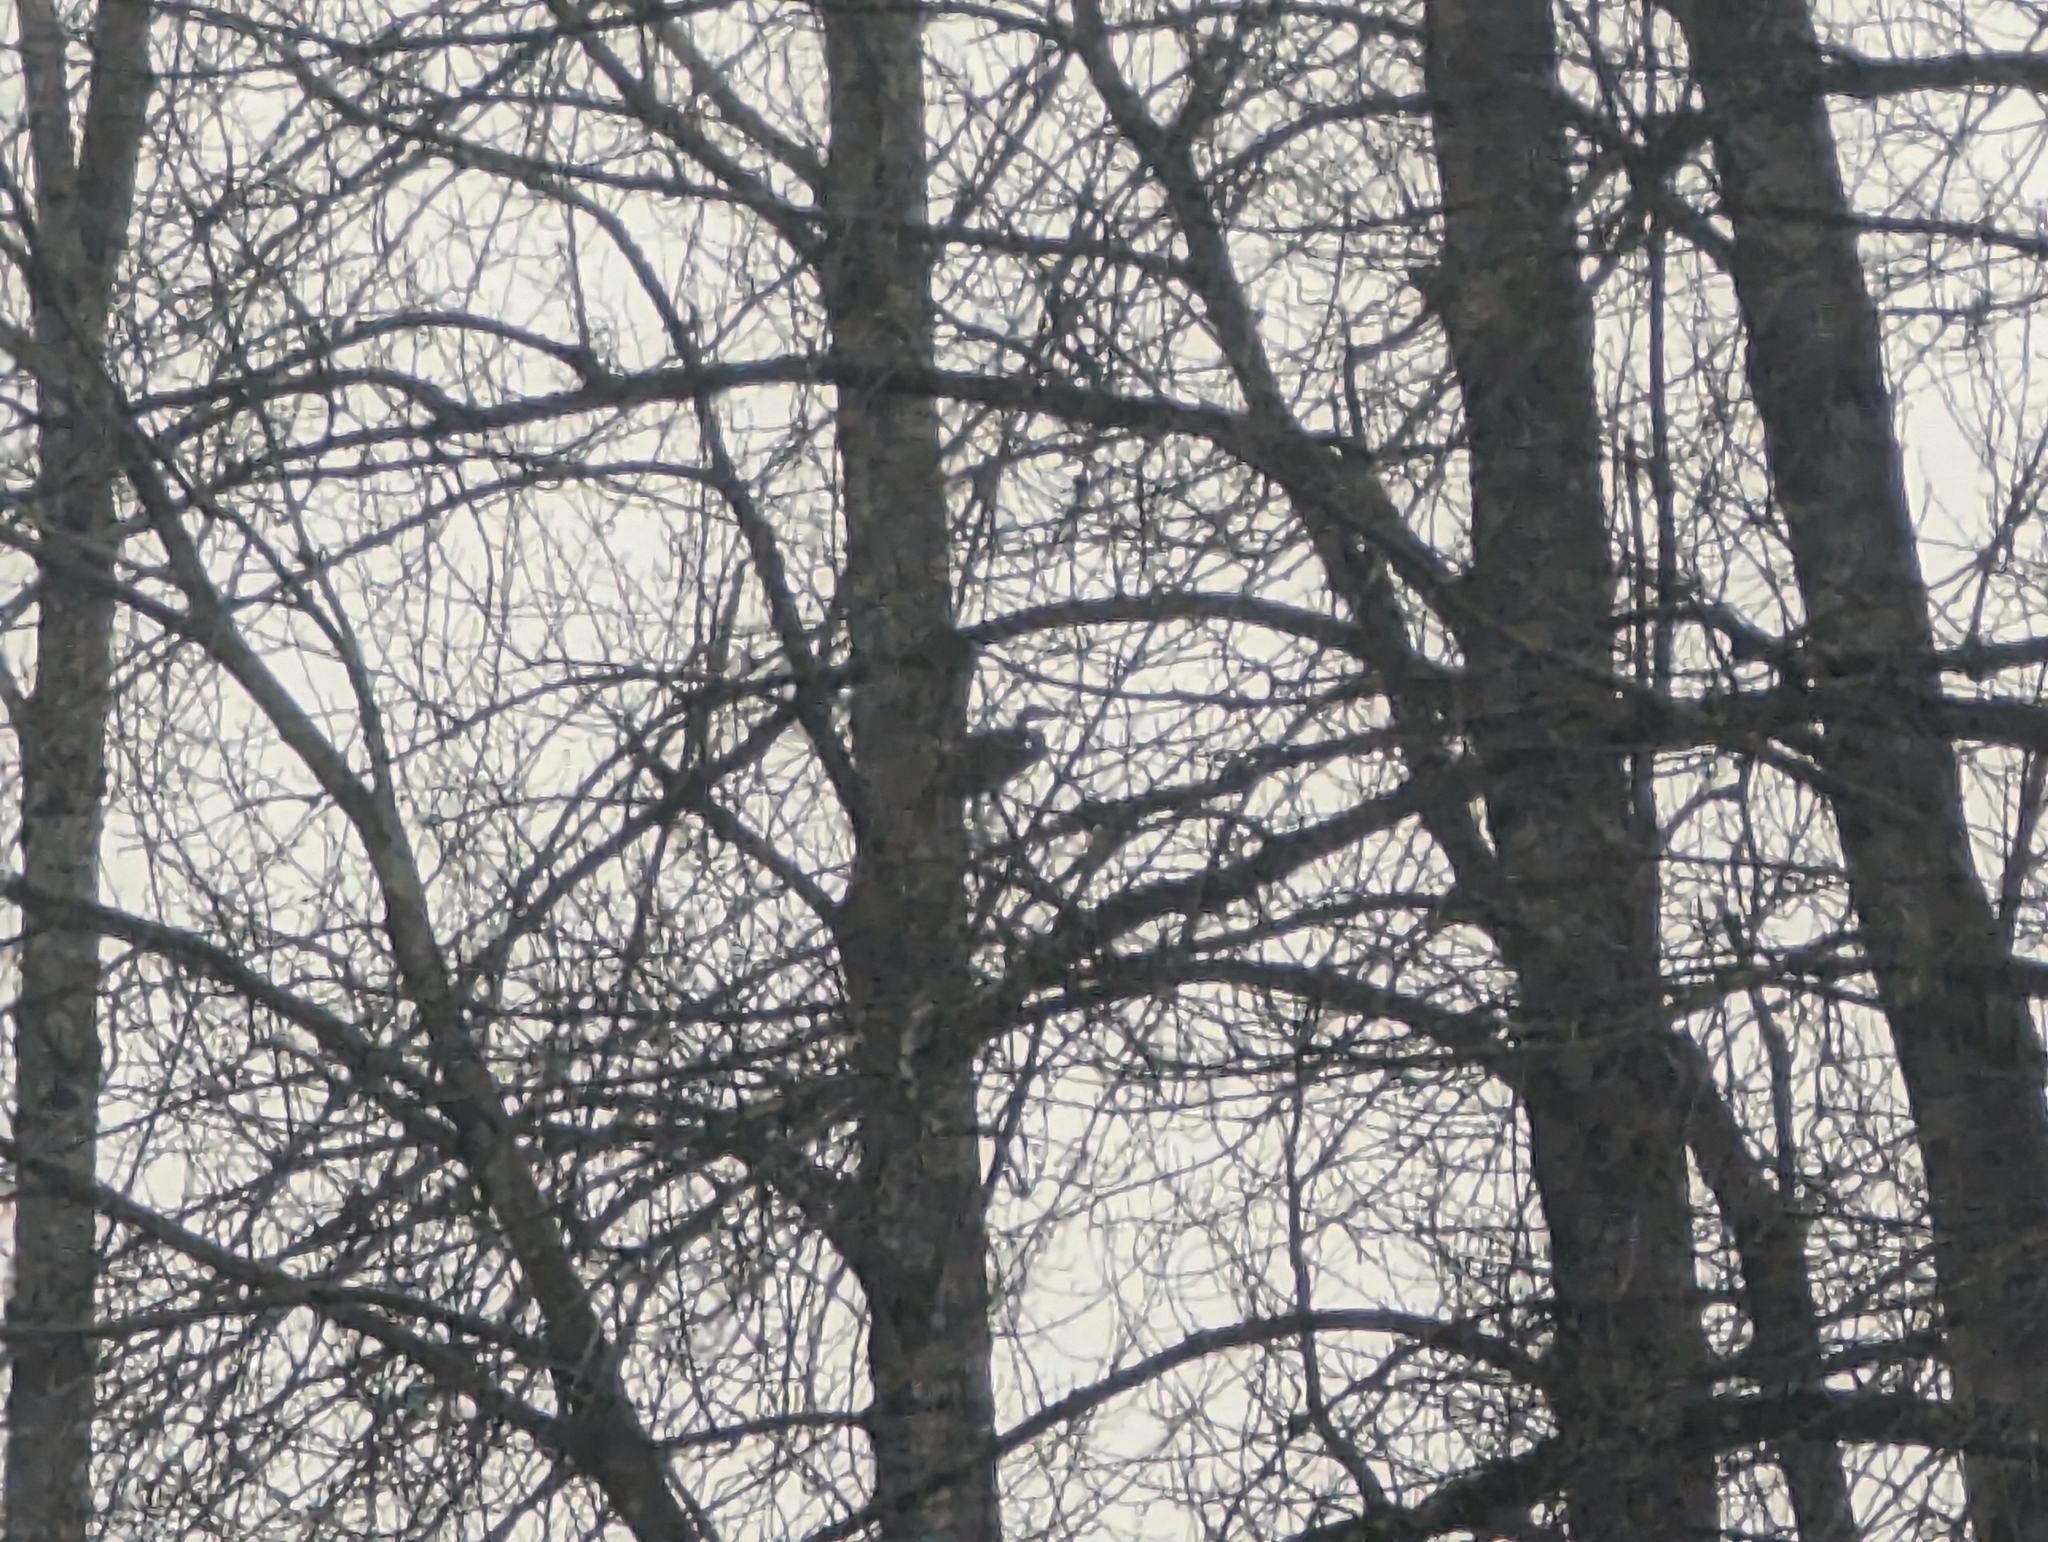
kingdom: Animalia
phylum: Chordata
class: Aves
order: Pelecaniformes
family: Ardeidae
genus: Ardea
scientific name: Ardea herodias
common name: Great blue heron
